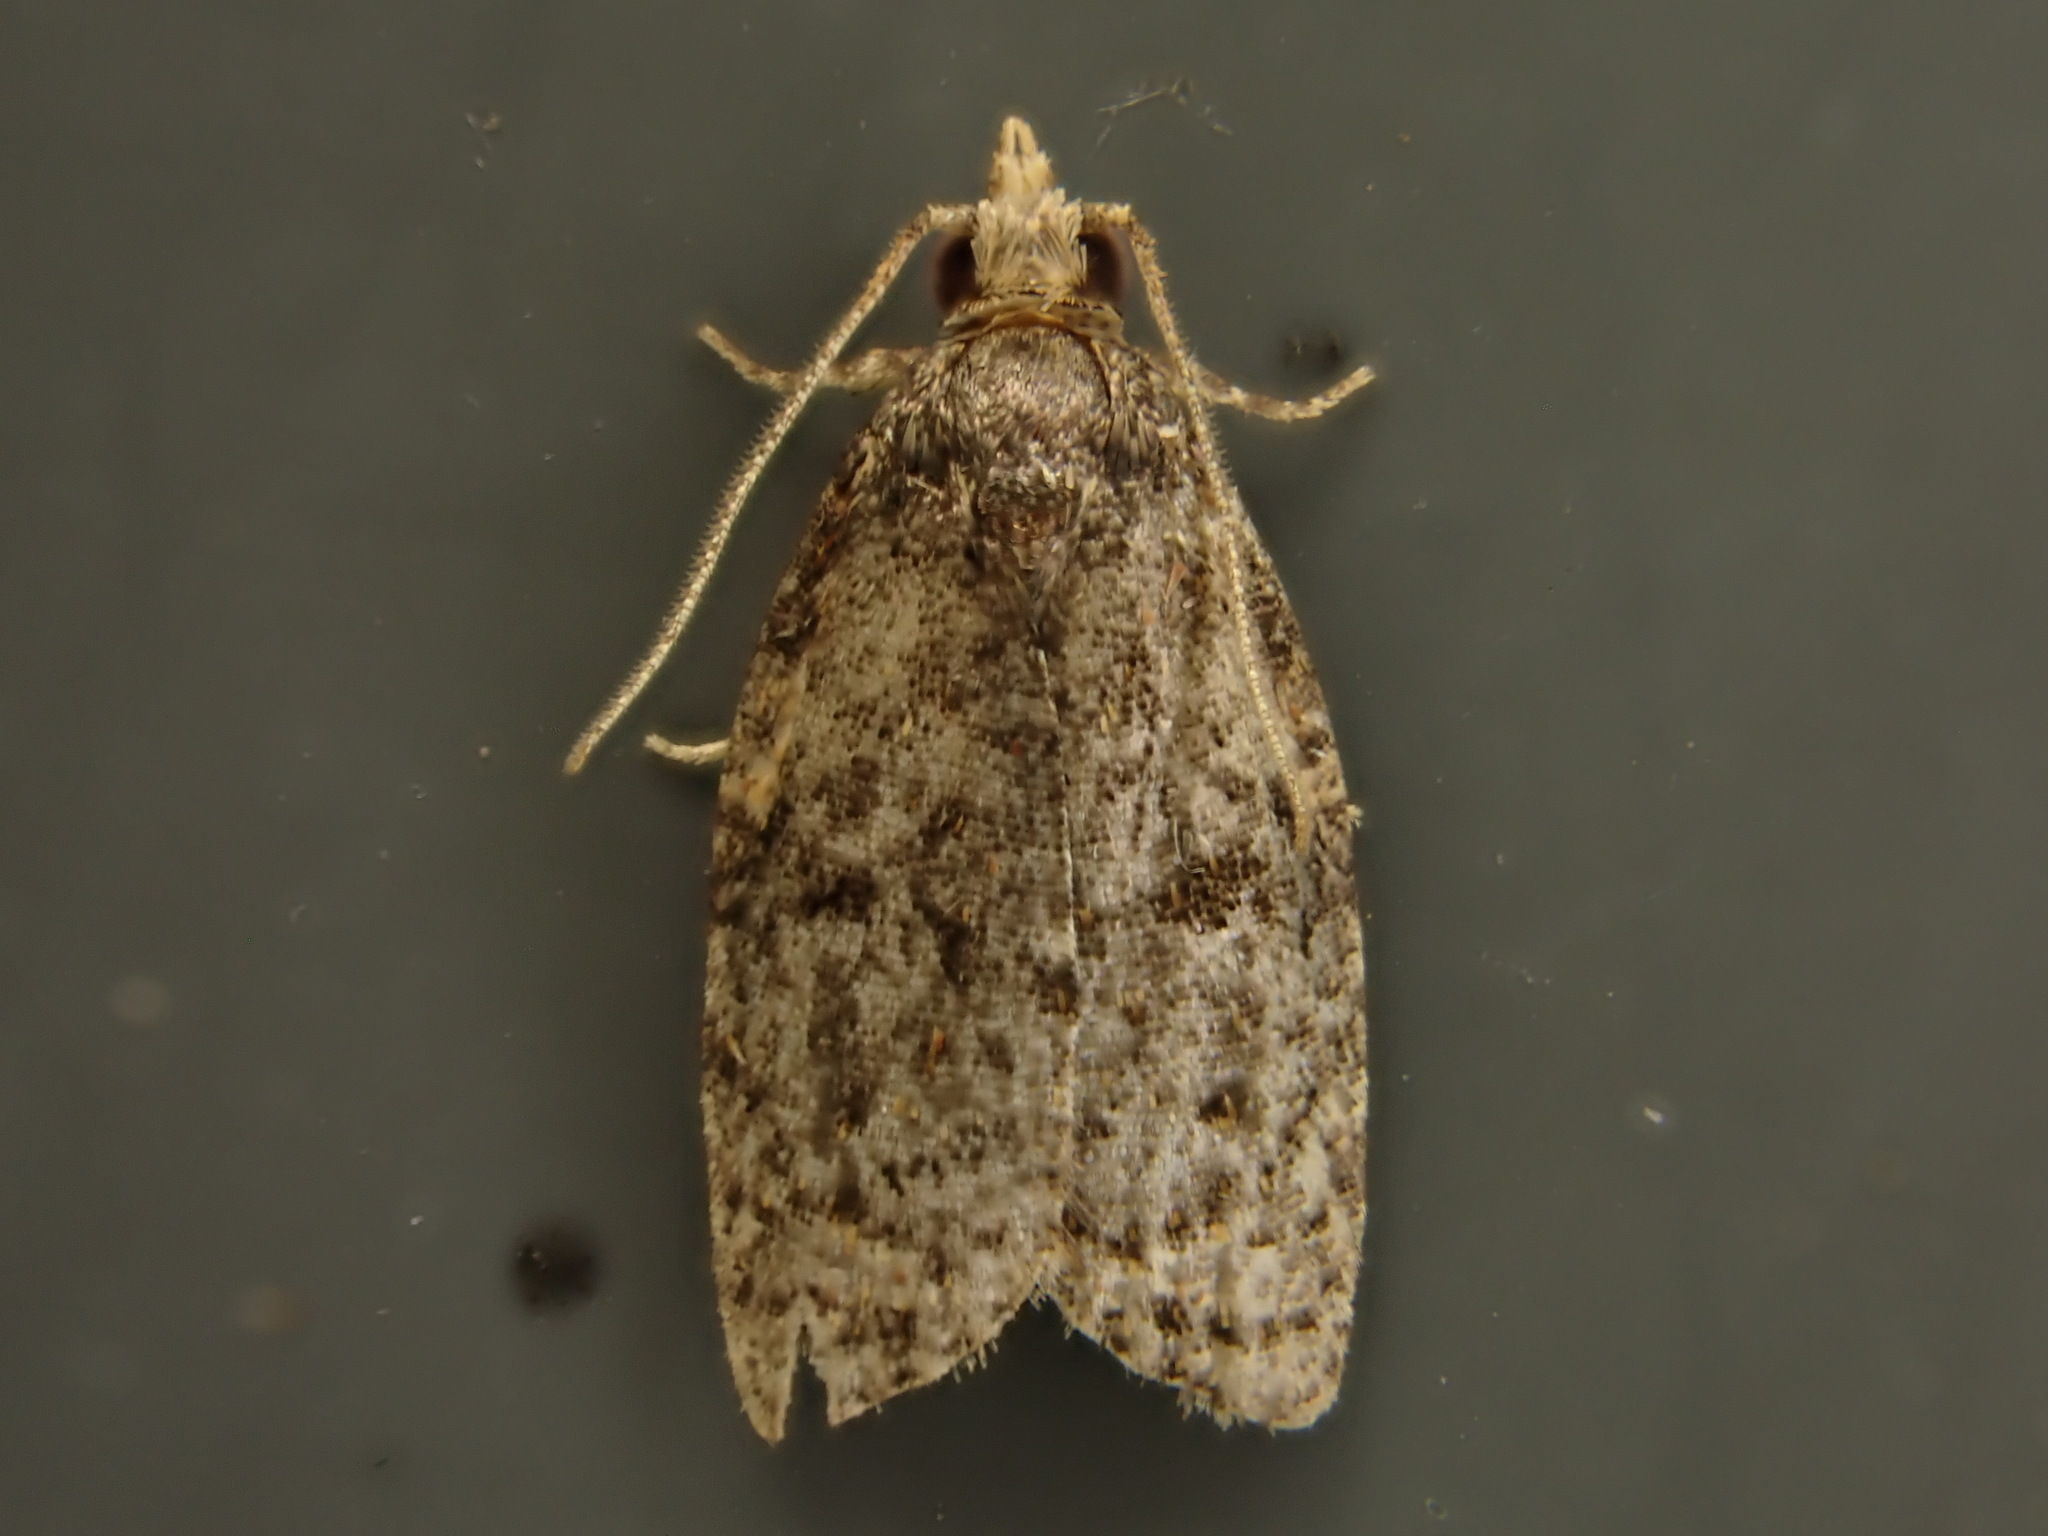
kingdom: Animalia
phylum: Arthropoda
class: Insecta
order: Lepidoptera
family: Tortricidae
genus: Capua
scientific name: Capua intractana
